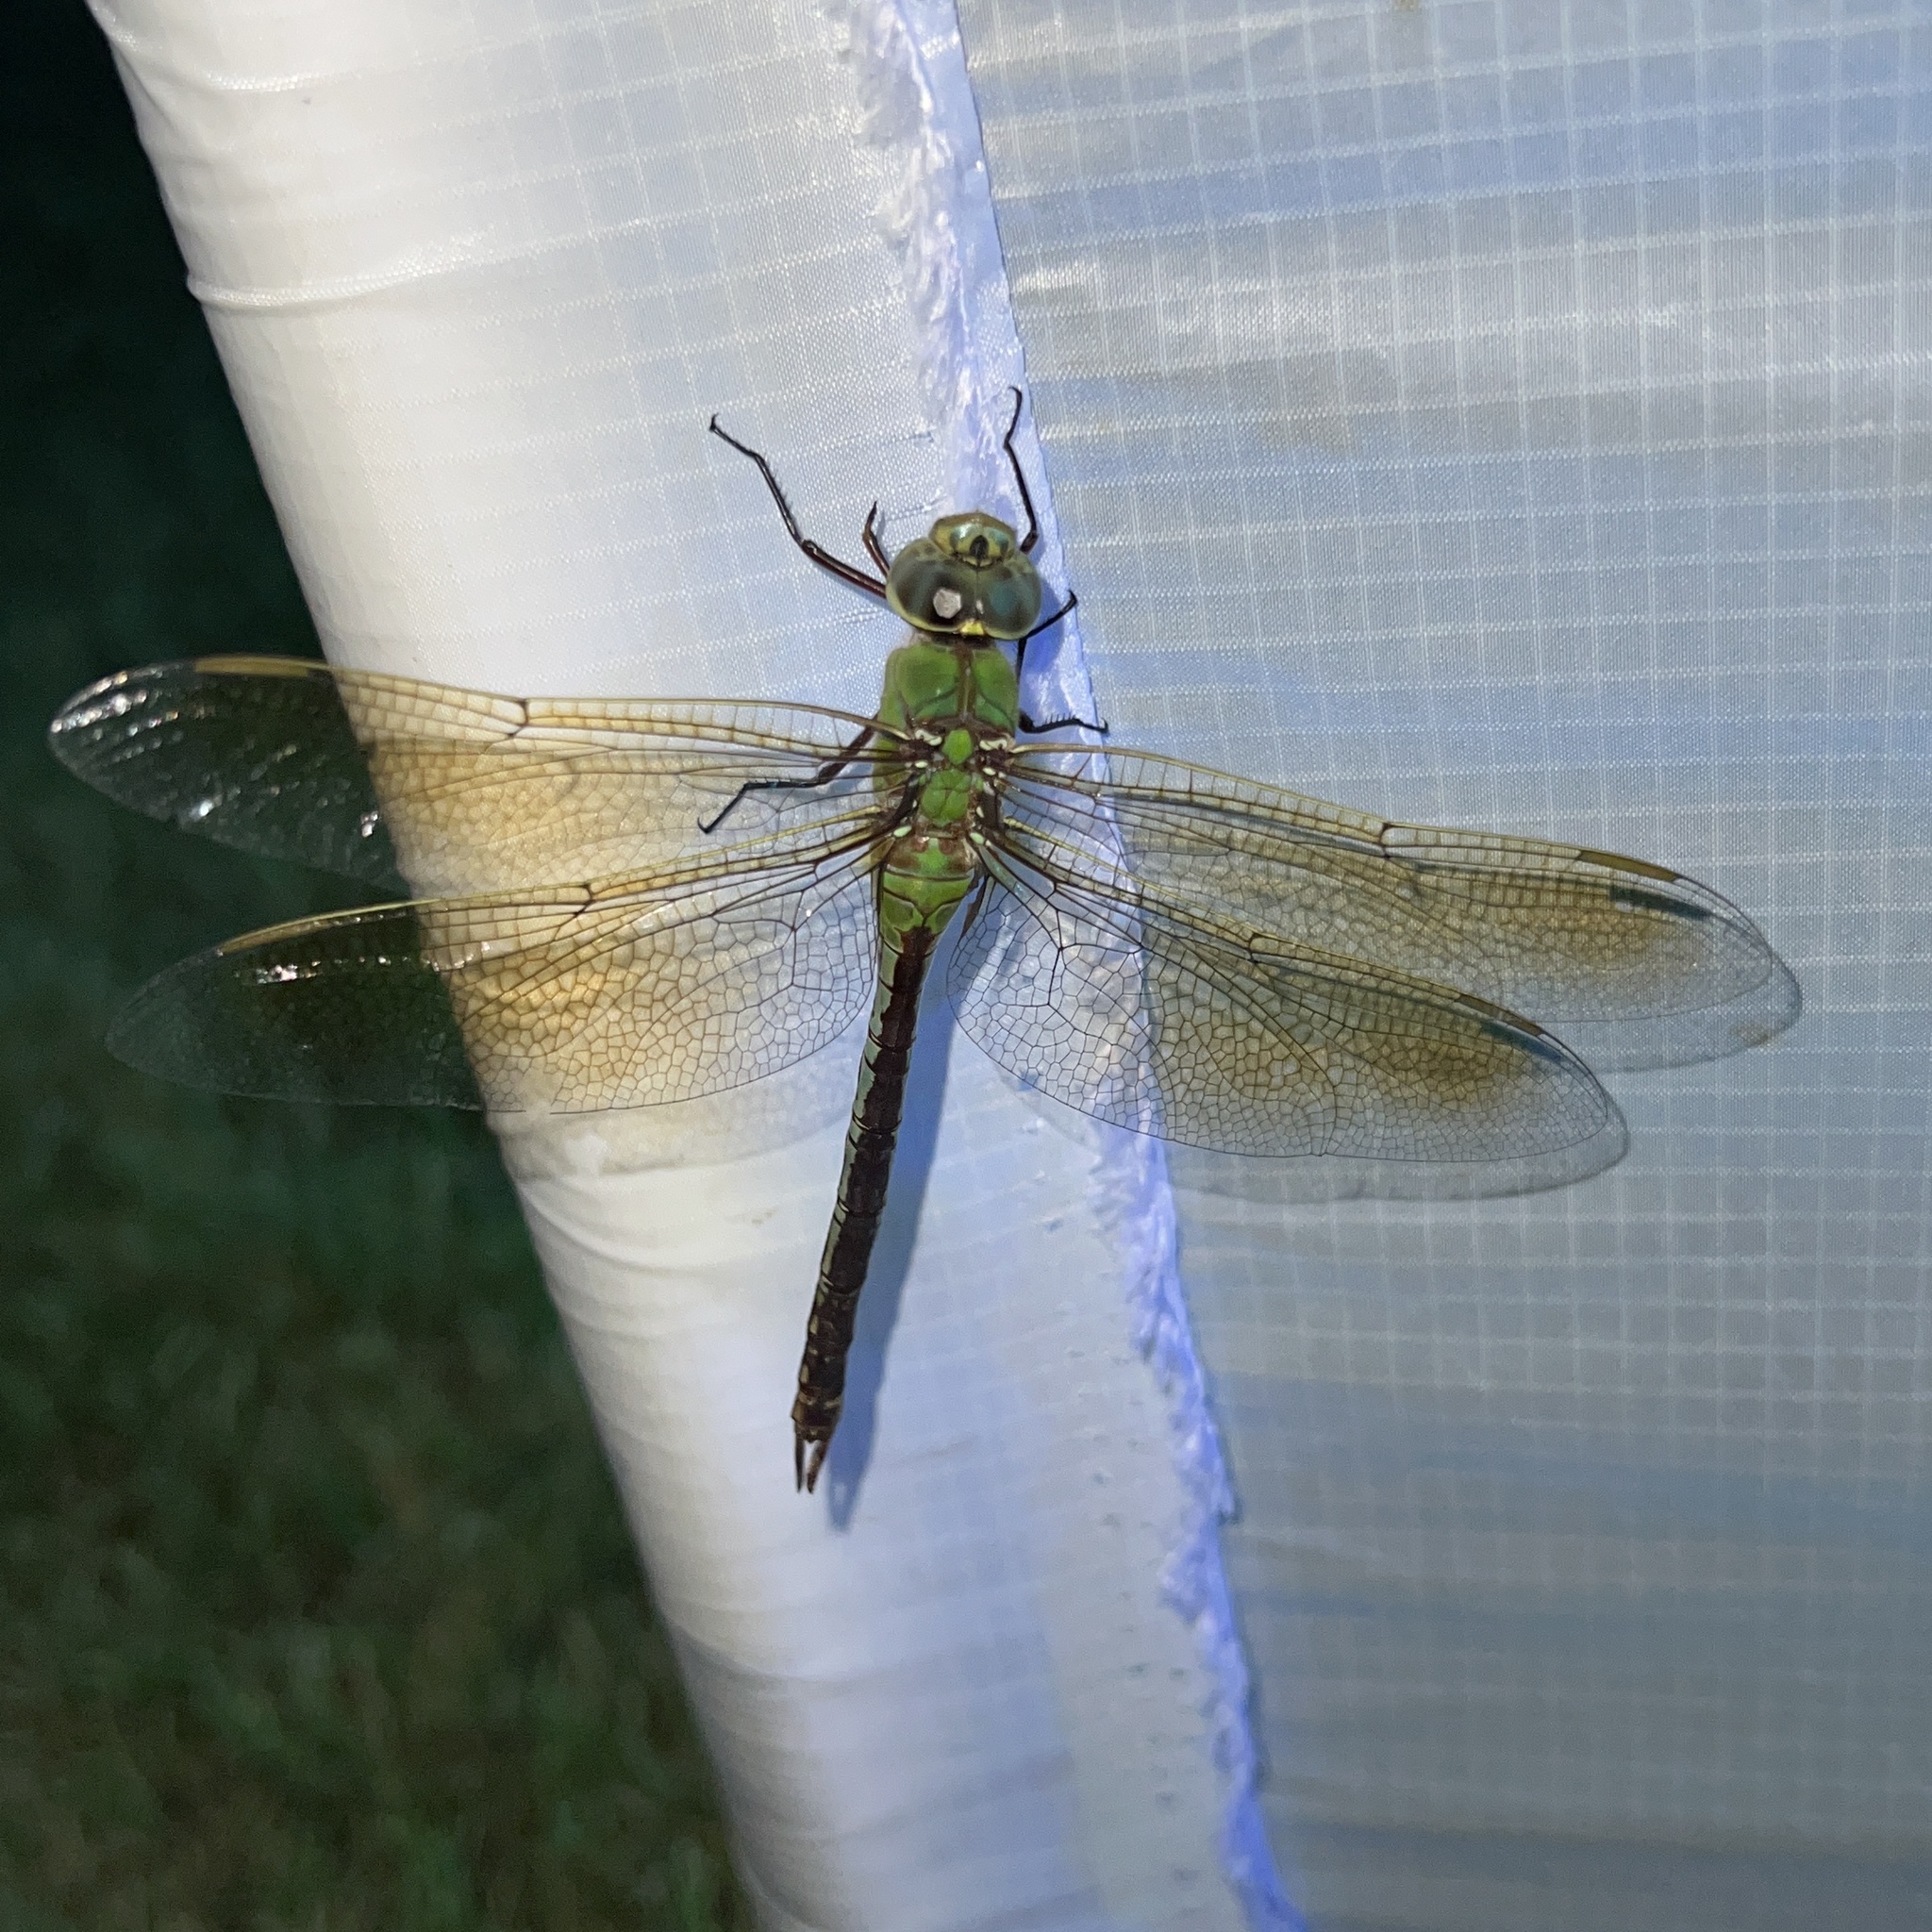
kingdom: Animalia
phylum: Arthropoda
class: Insecta
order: Odonata
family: Aeshnidae
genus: Anax
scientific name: Anax junius
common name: Common green darner
